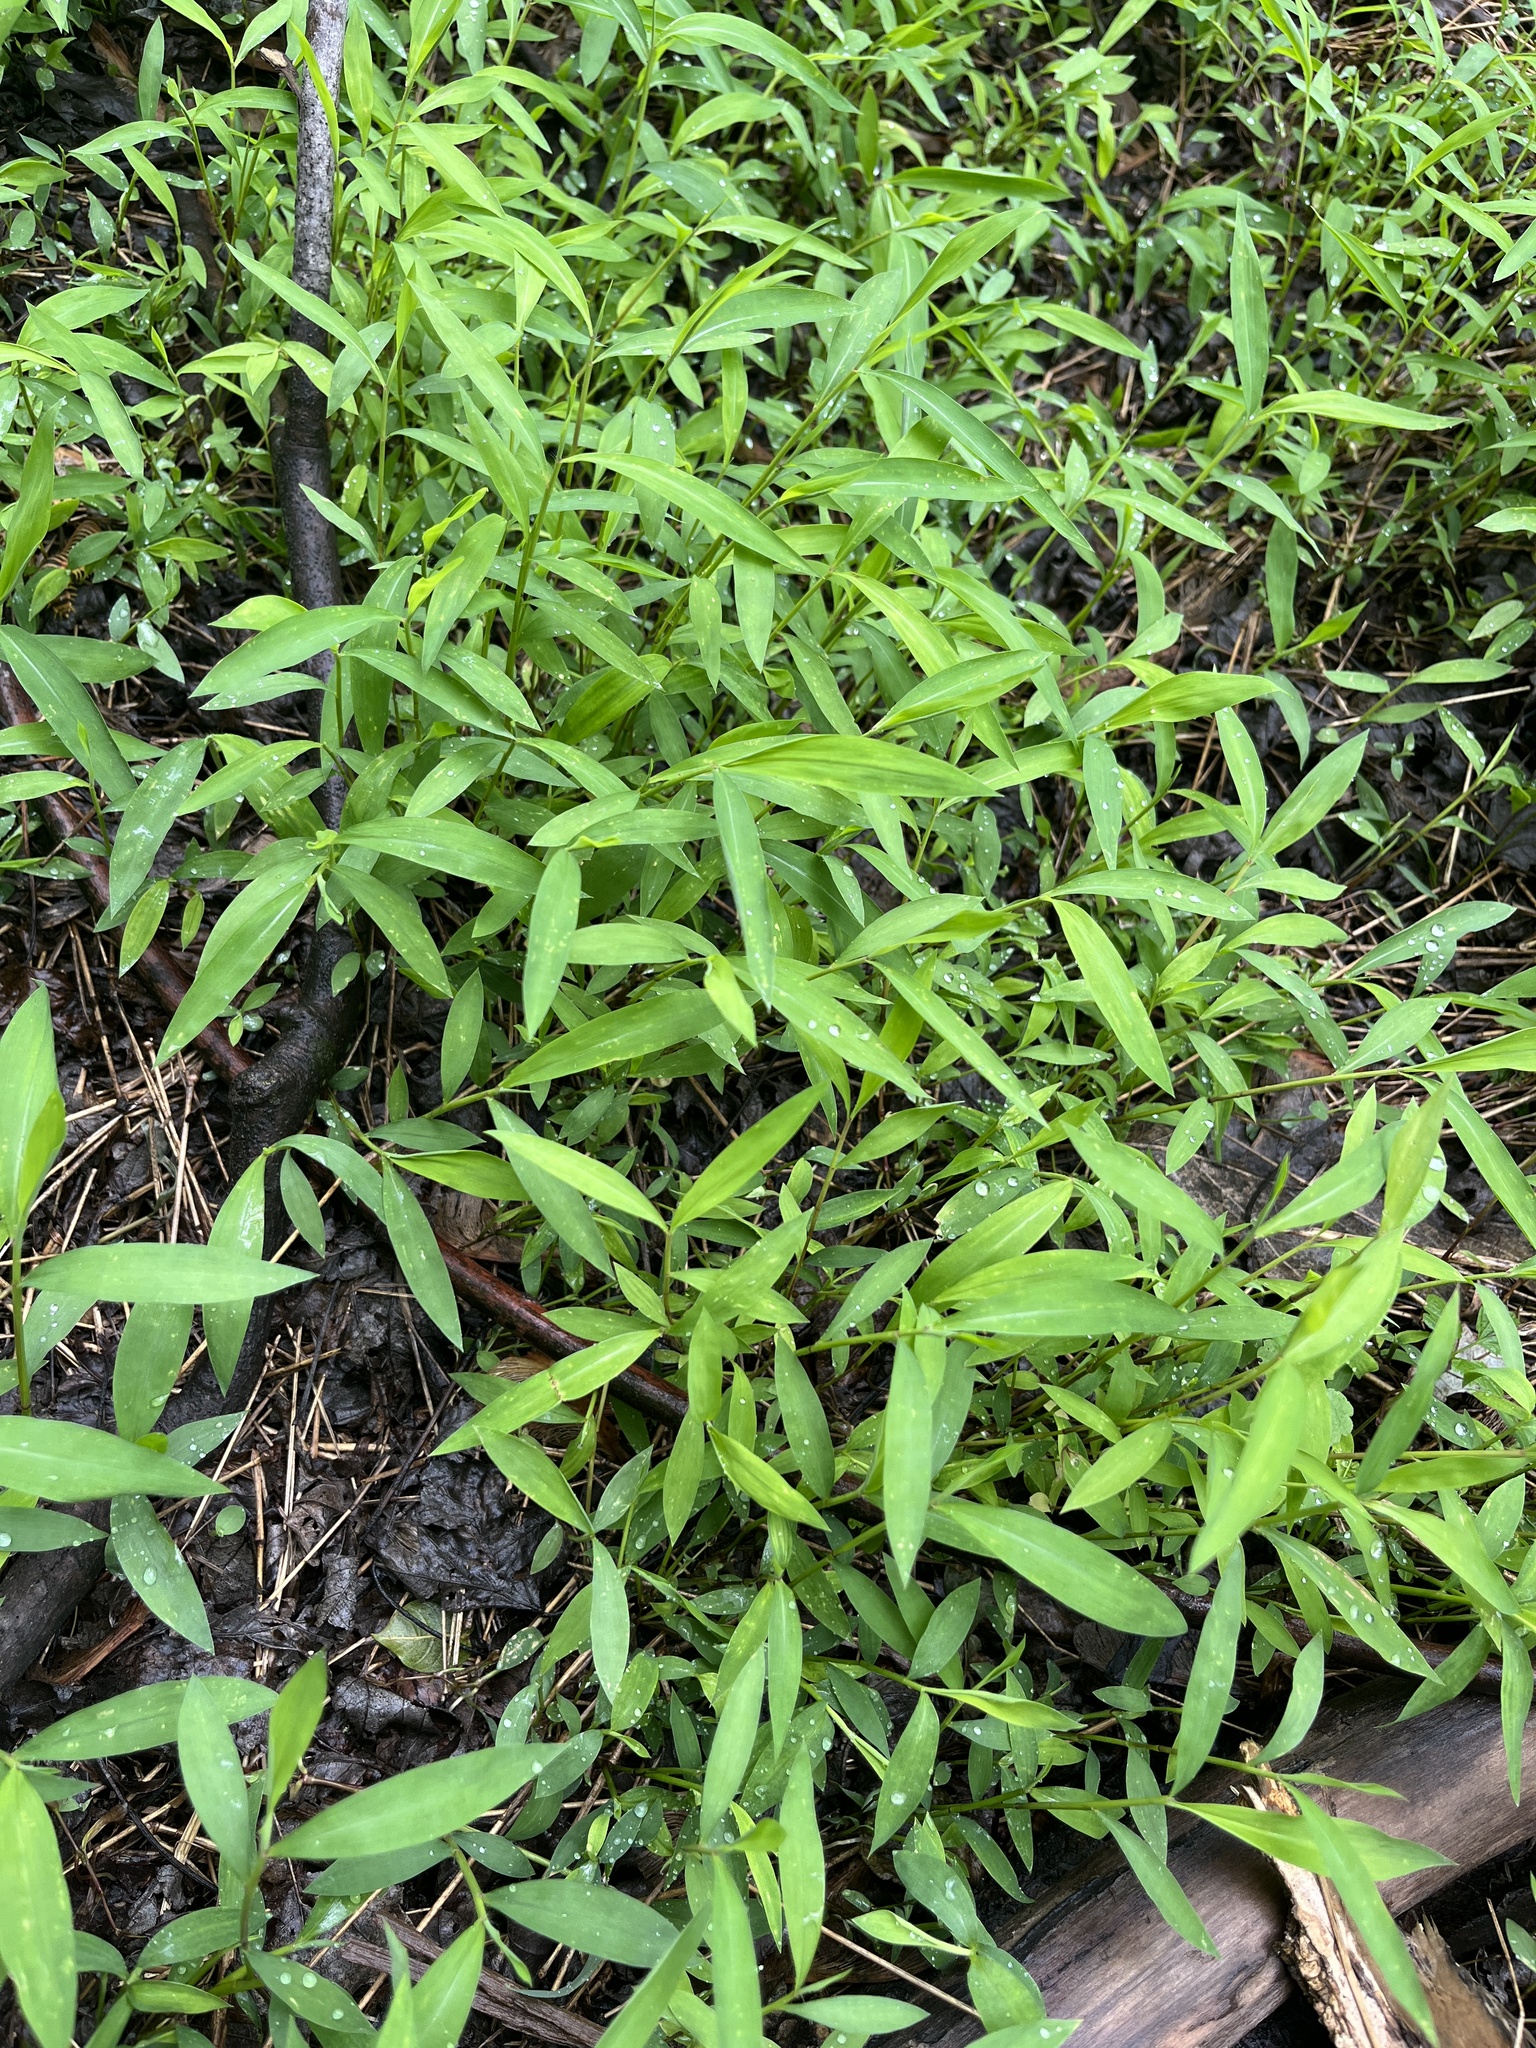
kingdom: Plantae
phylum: Tracheophyta
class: Liliopsida
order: Poales
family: Poaceae
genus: Microstegium
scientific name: Microstegium vimineum
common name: Japanese stiltgrass
